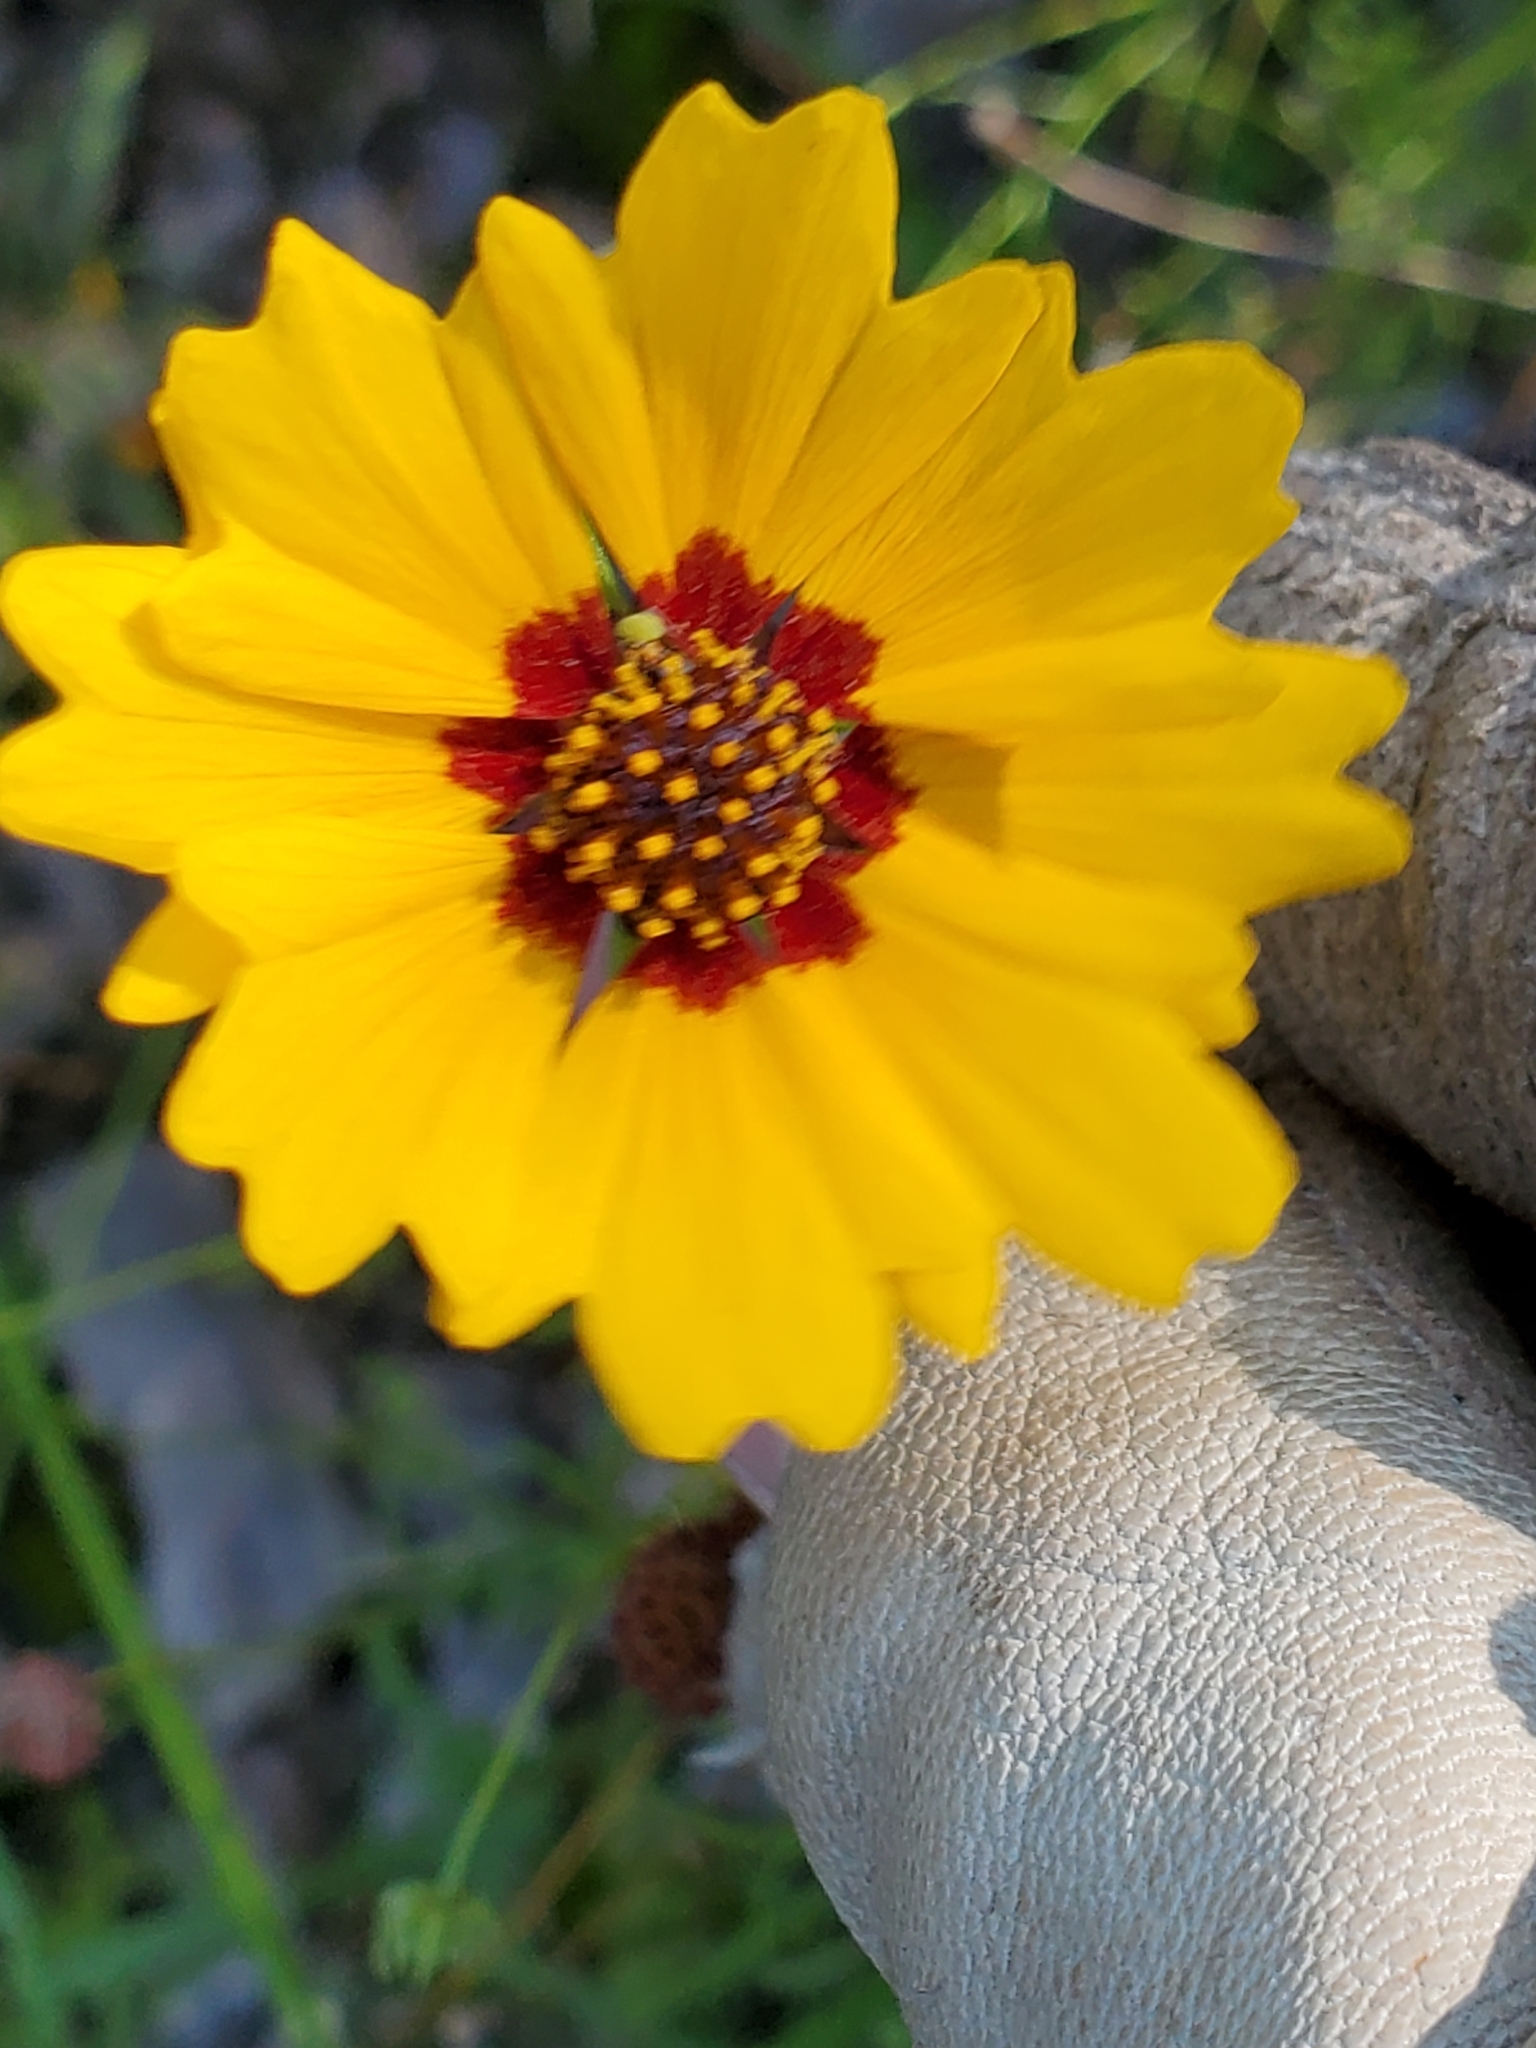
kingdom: Plantae
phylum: Tracheophyta
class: Magnoliopsida
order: Asterales
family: Asteraceae
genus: Coreopsis
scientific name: Coreopsis basalis
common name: Golden-mane coreopsis
